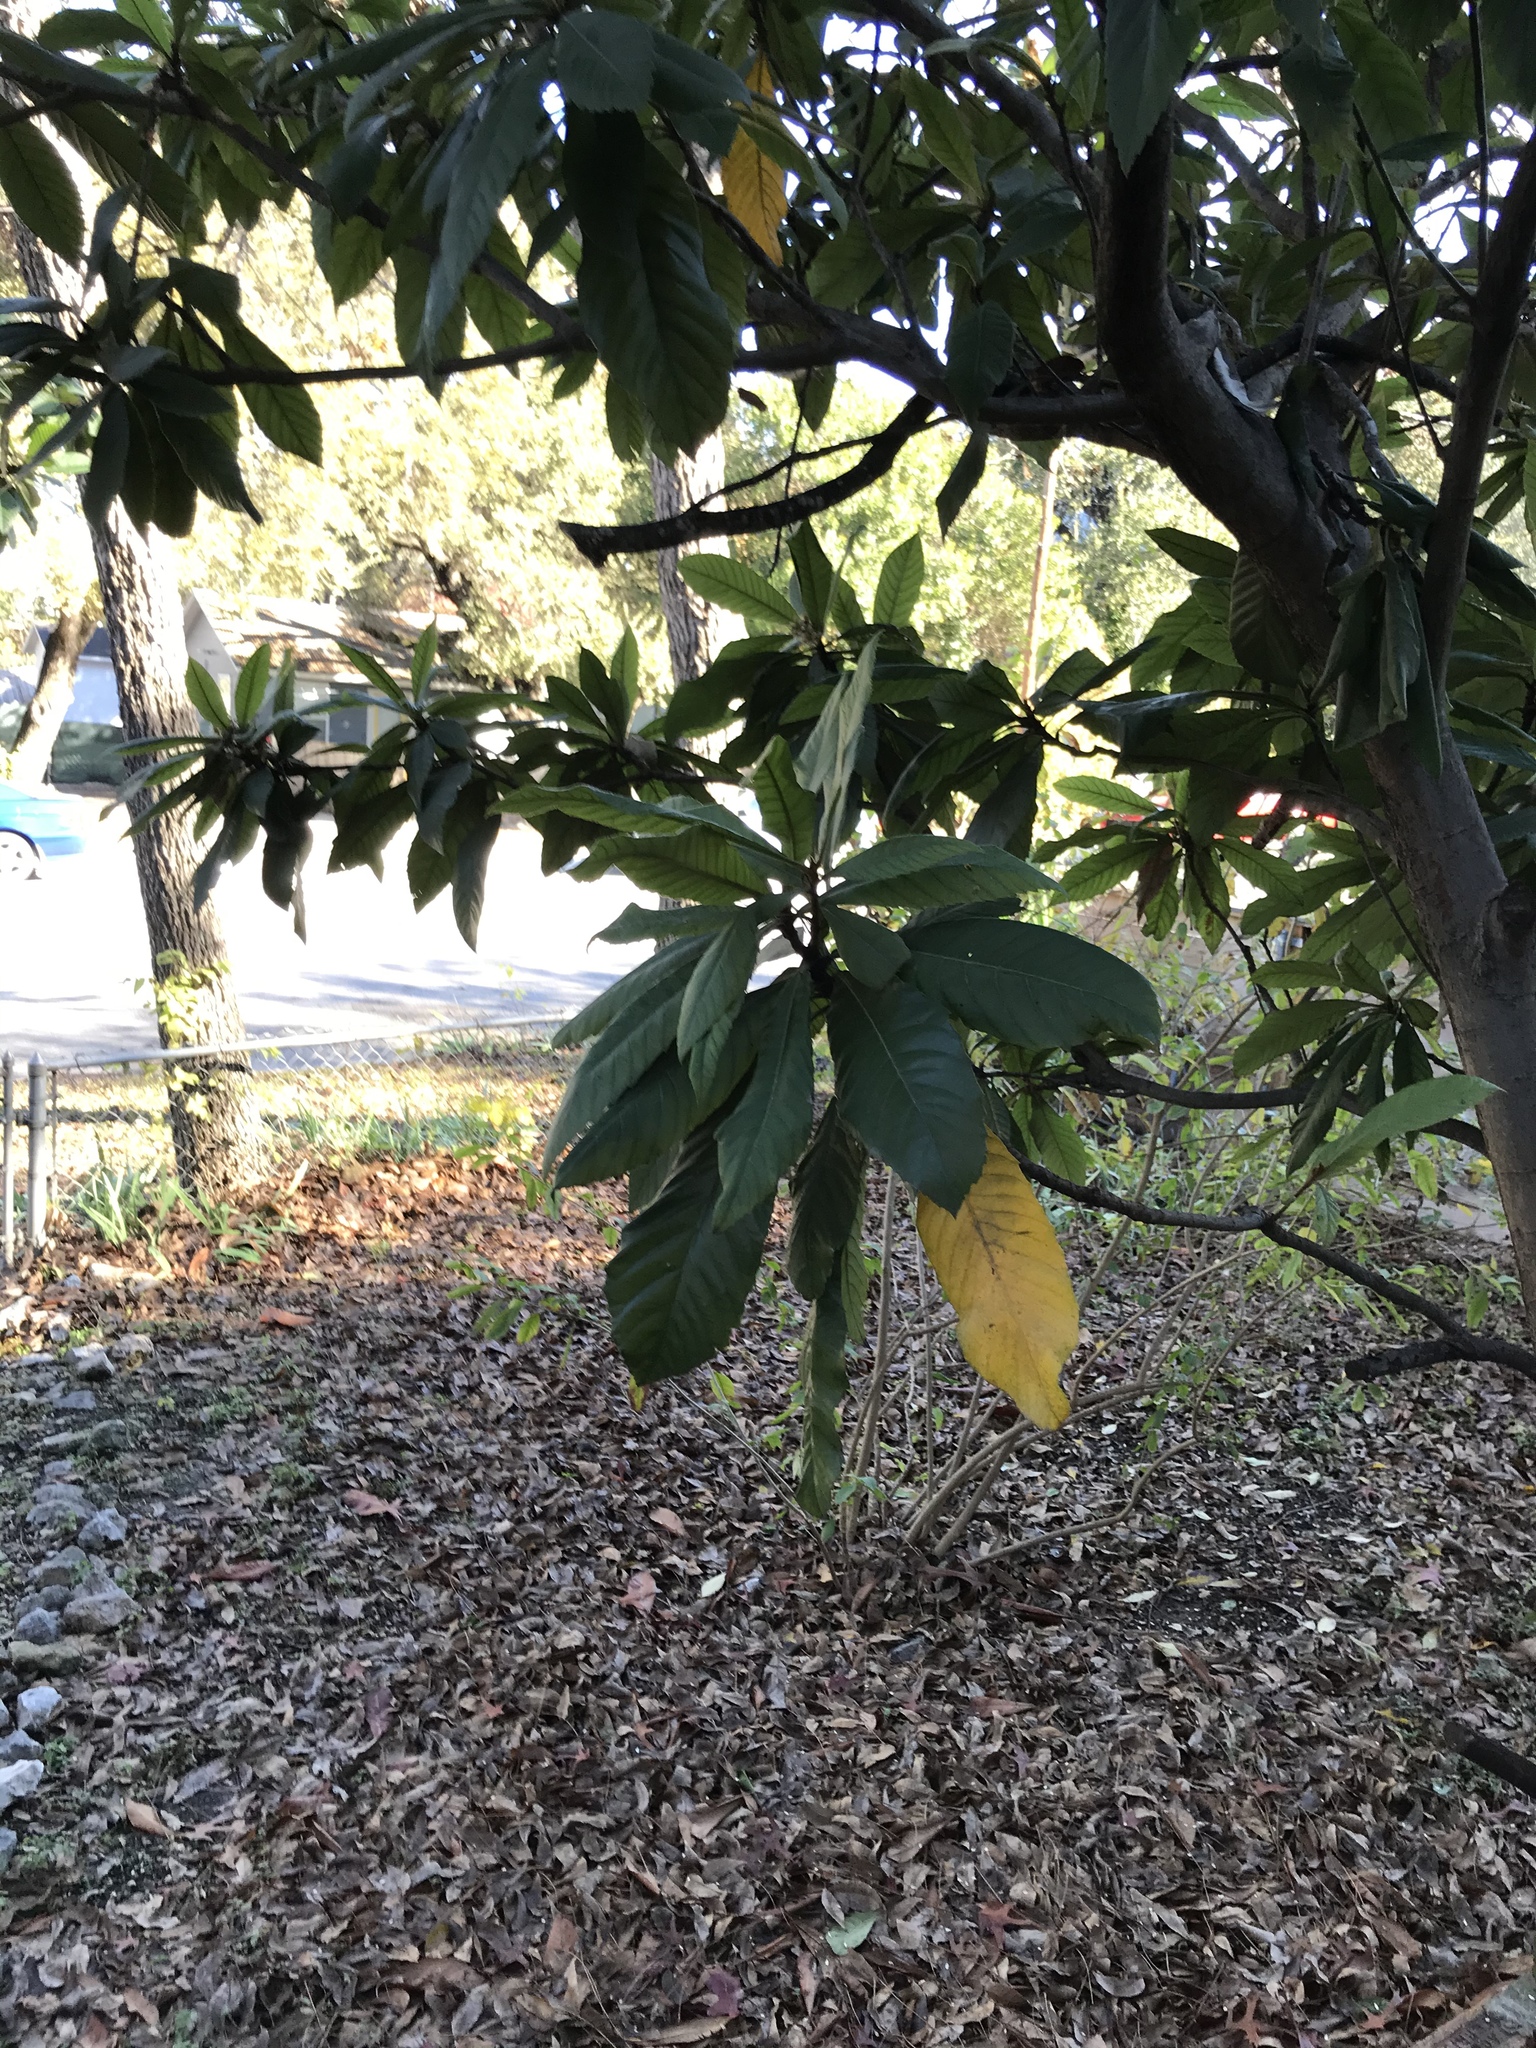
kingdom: Plantae
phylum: Tracheophyta
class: Magnoliopsida
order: Rosales
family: Rosaceae
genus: Rhaphiolepis
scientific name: Rhaphiolepis bibas
